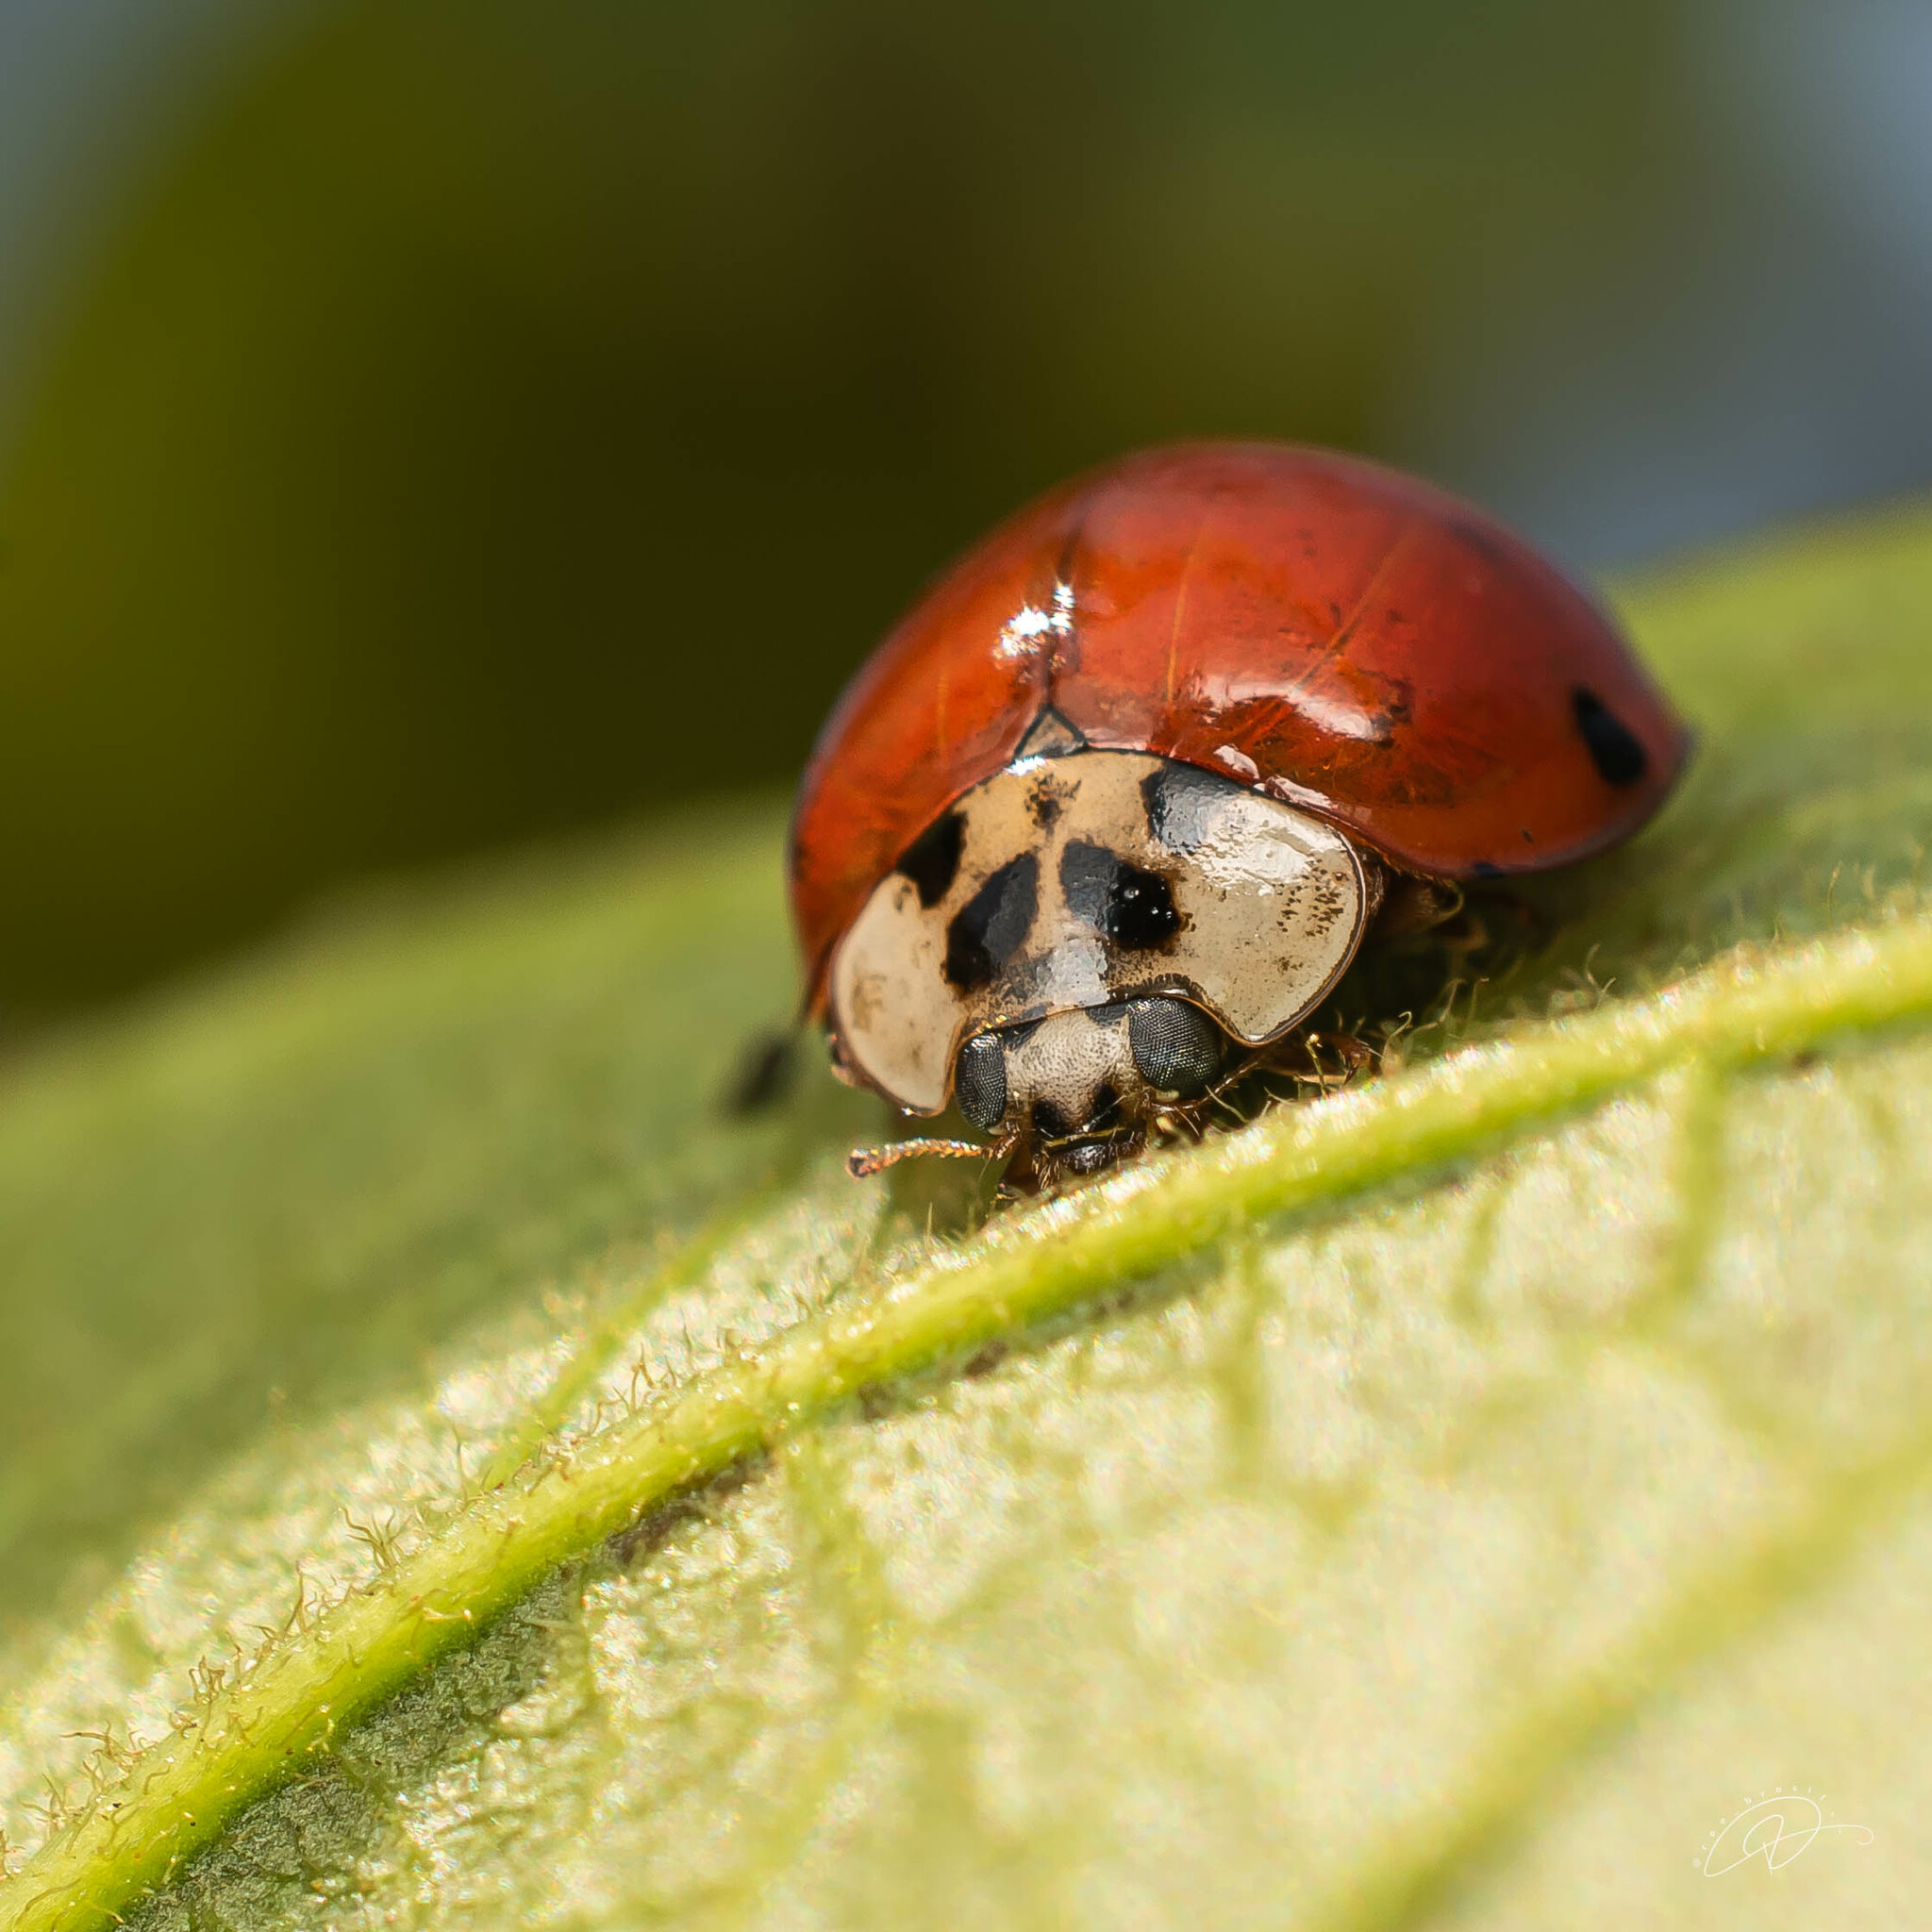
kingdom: Animalia
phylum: Arthropoda
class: Insecta
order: Coleoptera
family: Coccinellidae
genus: Harmonia
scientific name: Harmonia axyridis
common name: Harlequin ladybird
